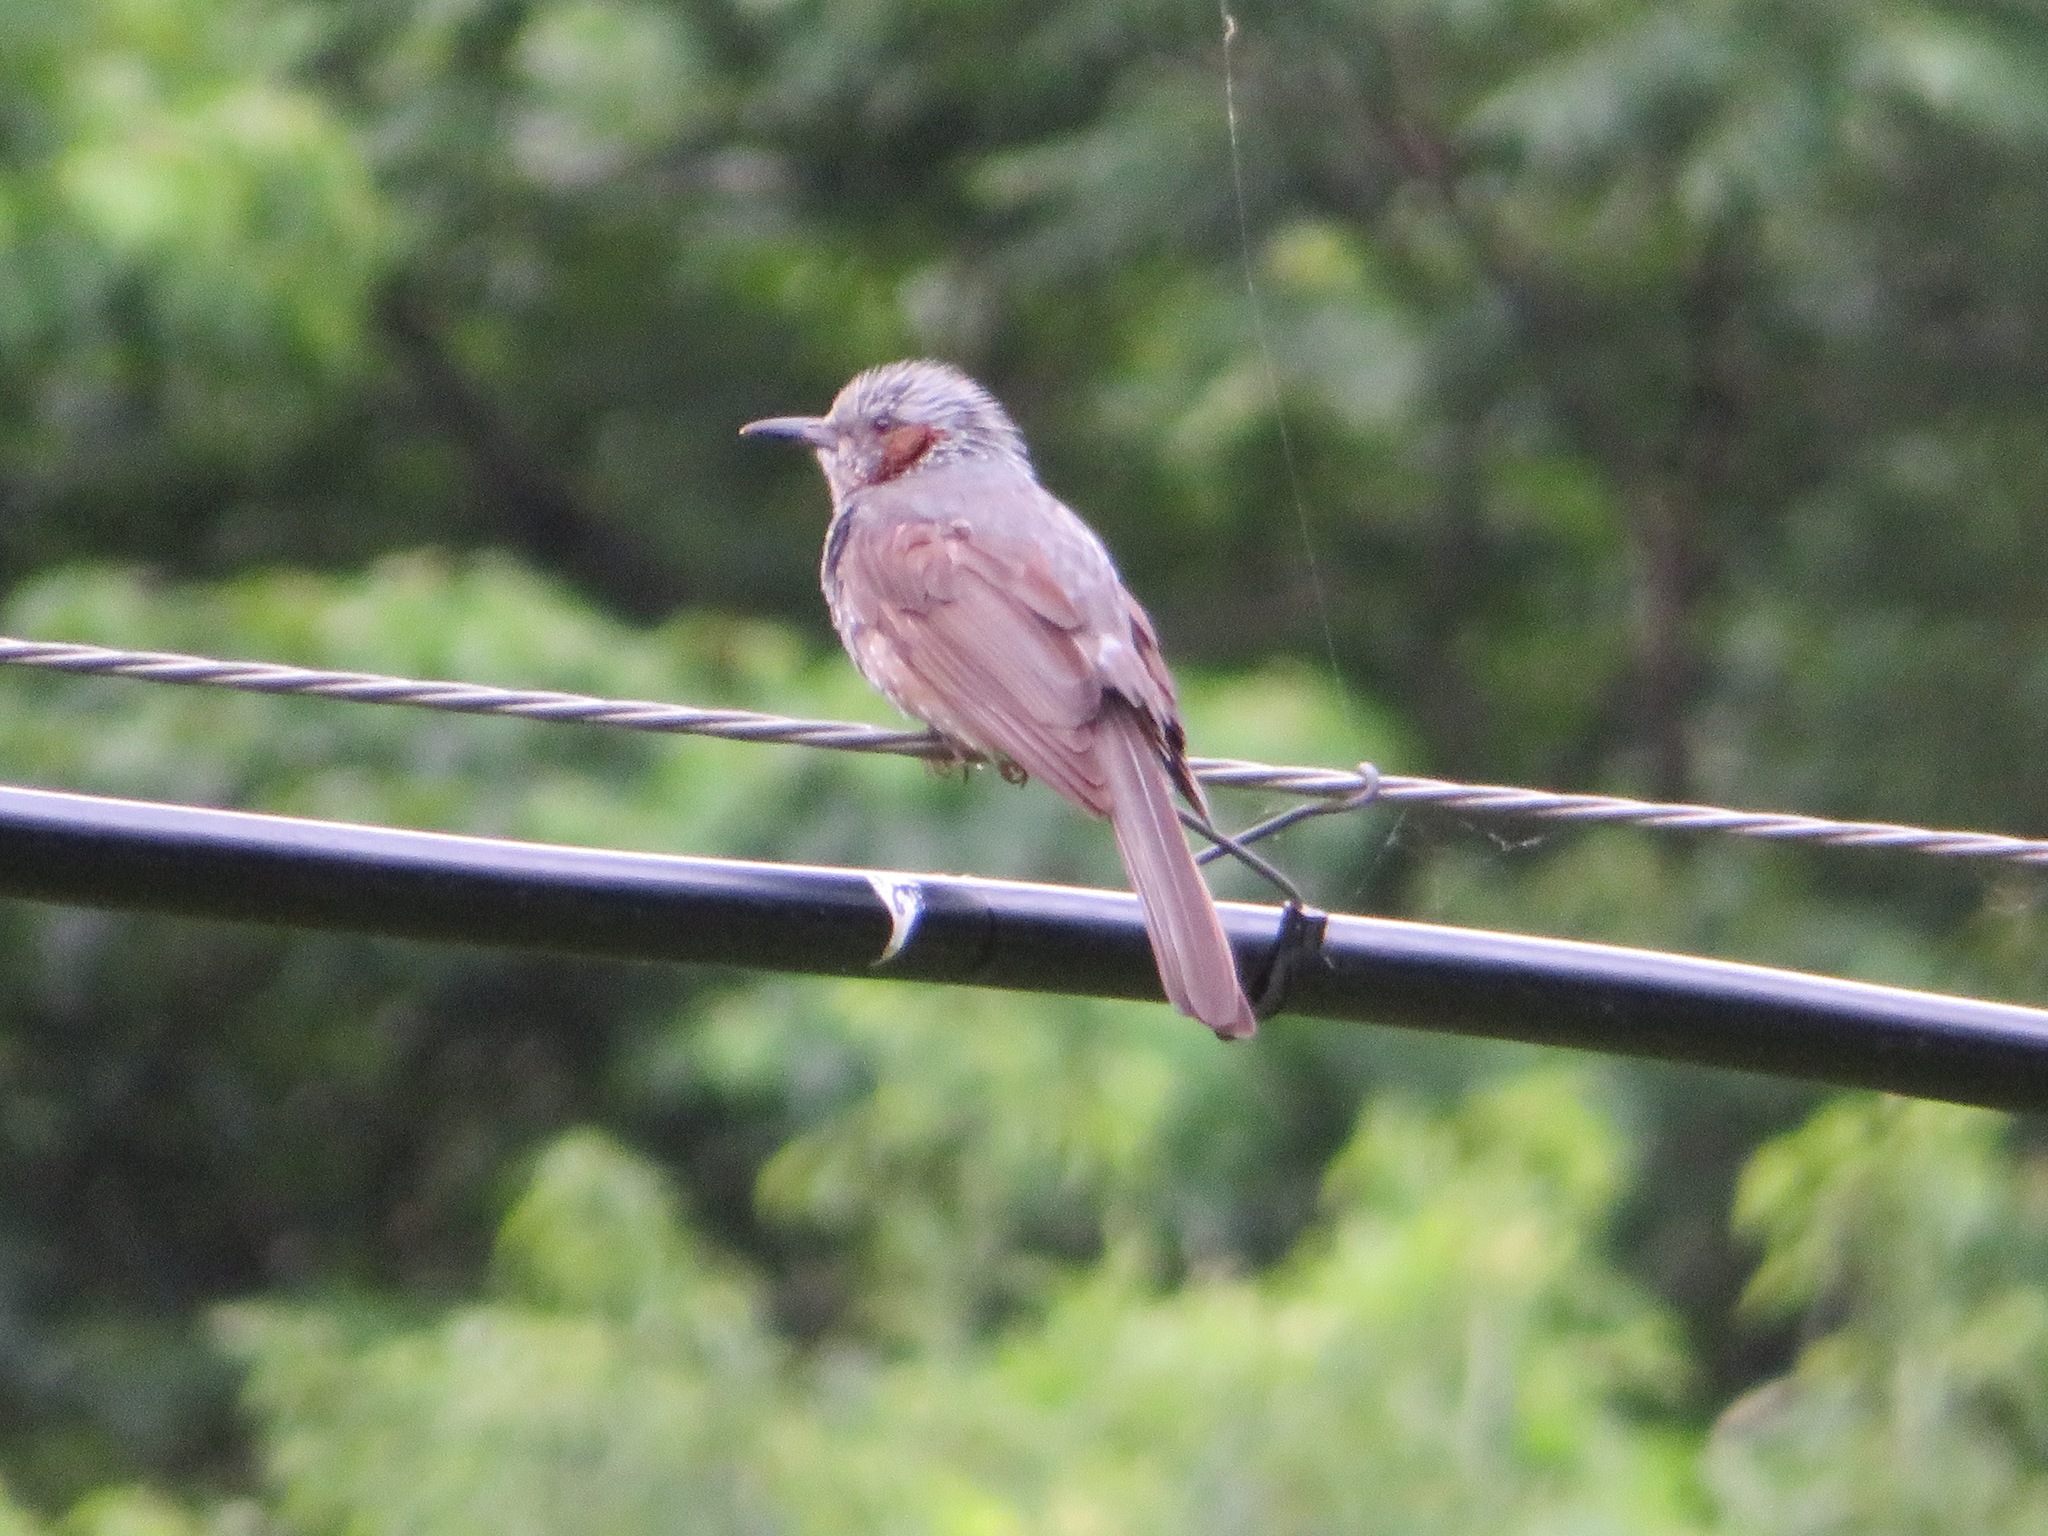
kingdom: Animalia
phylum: Chordata
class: Aves
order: Passeriformes
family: Pycnonotidae
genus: Hypsipetes
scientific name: Hypsipetes amaurotis
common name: Brown-eared bulbul
